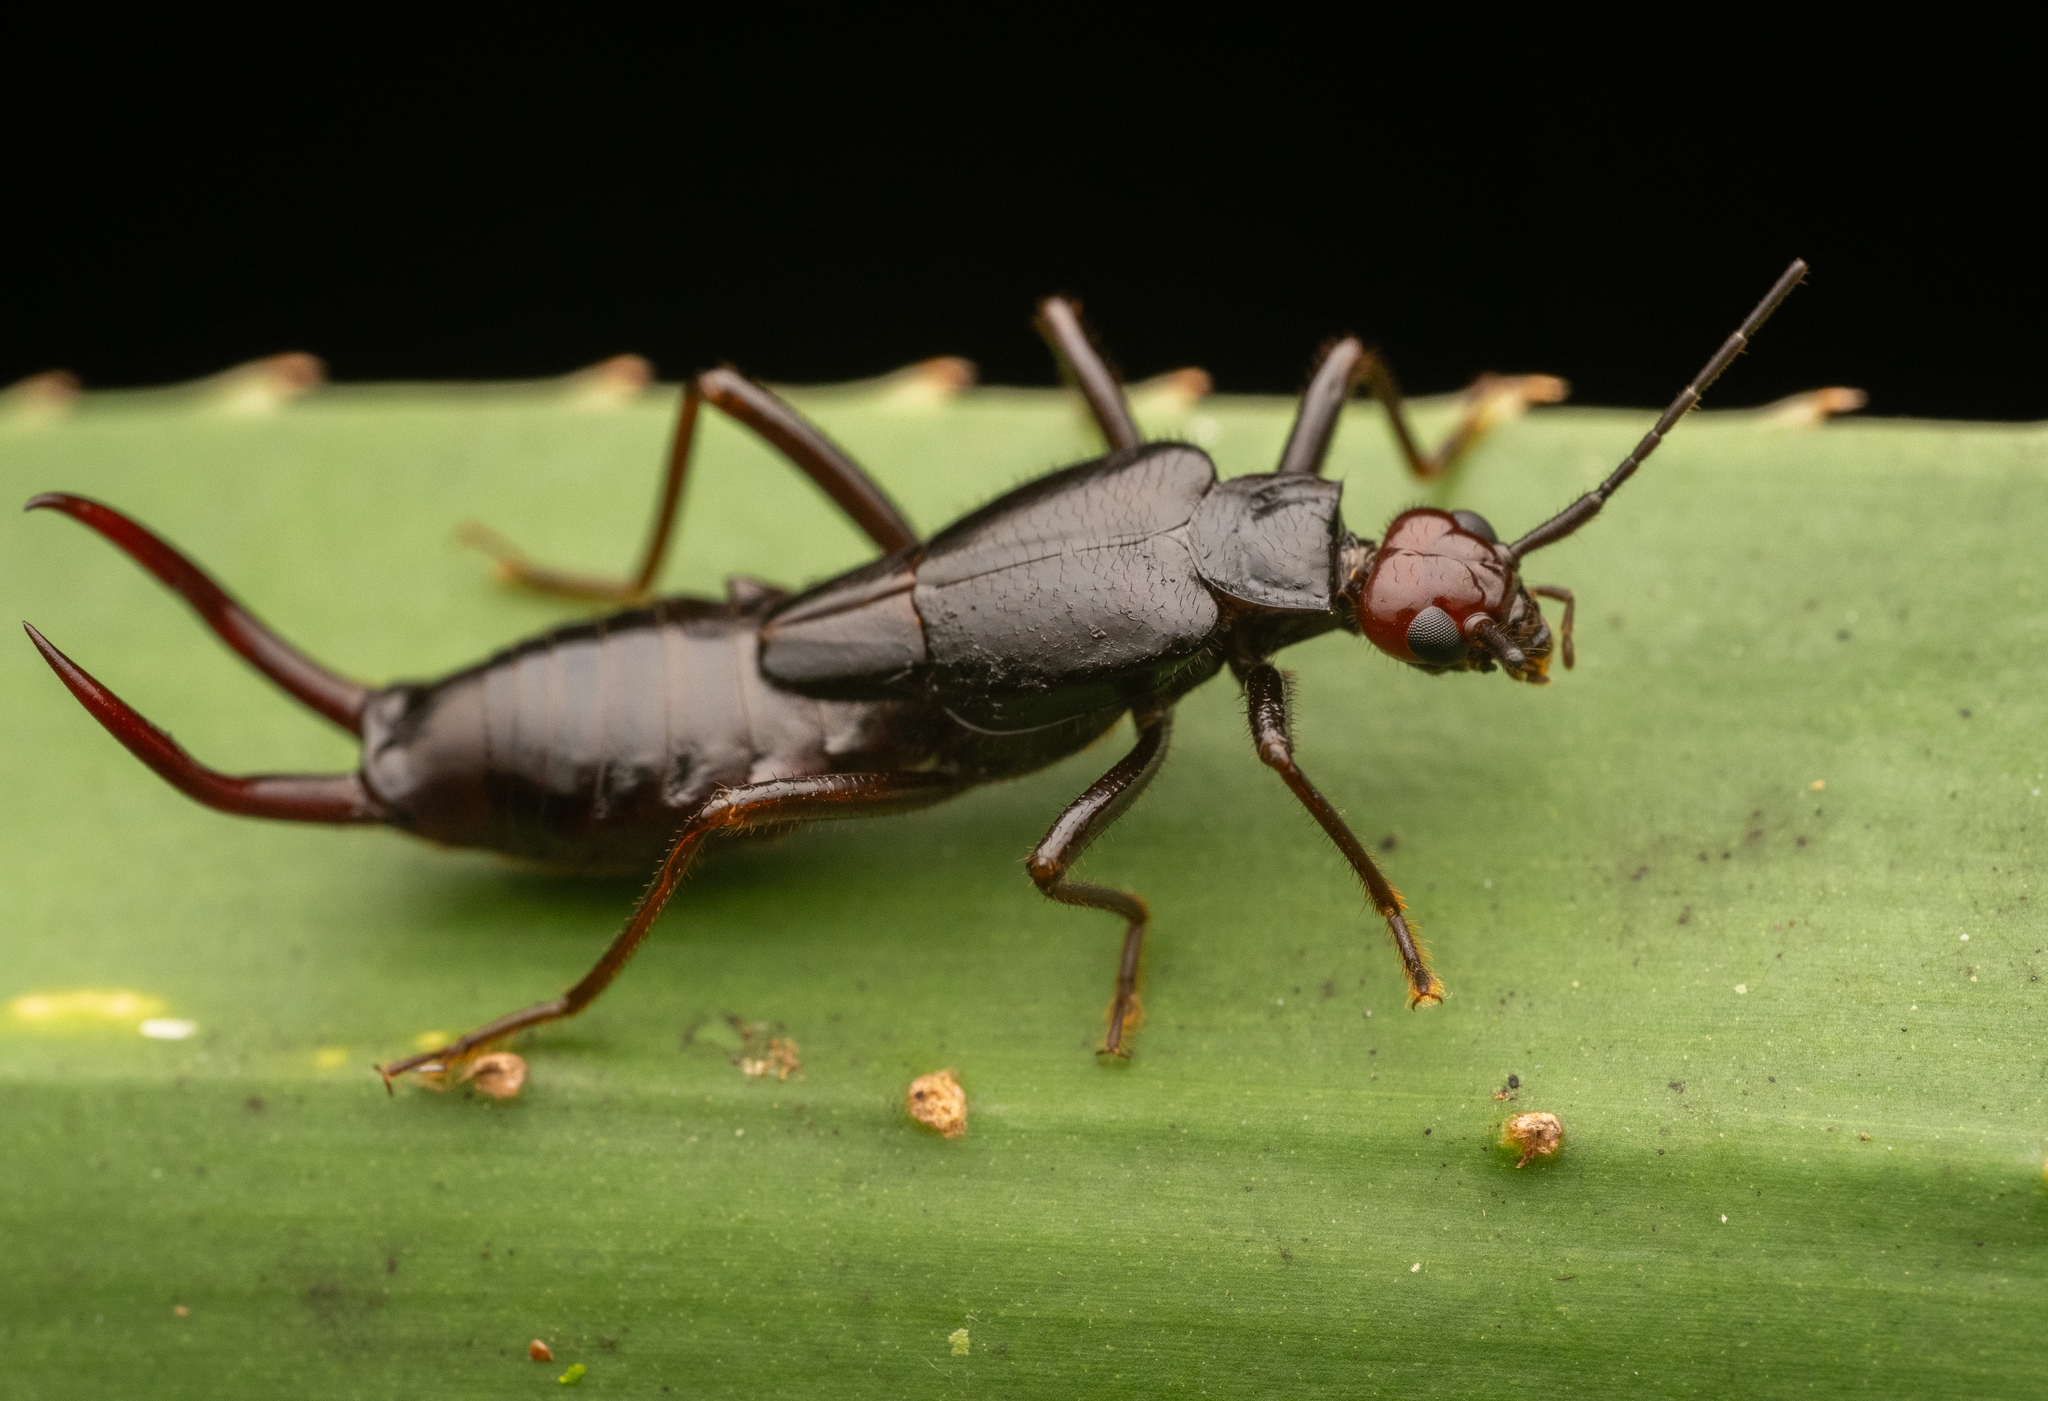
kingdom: Animalia
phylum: Arthropoda
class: Insecta
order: Dermaptera
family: Forficulidae
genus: Hypurgus
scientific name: Hypurgus fulvus
